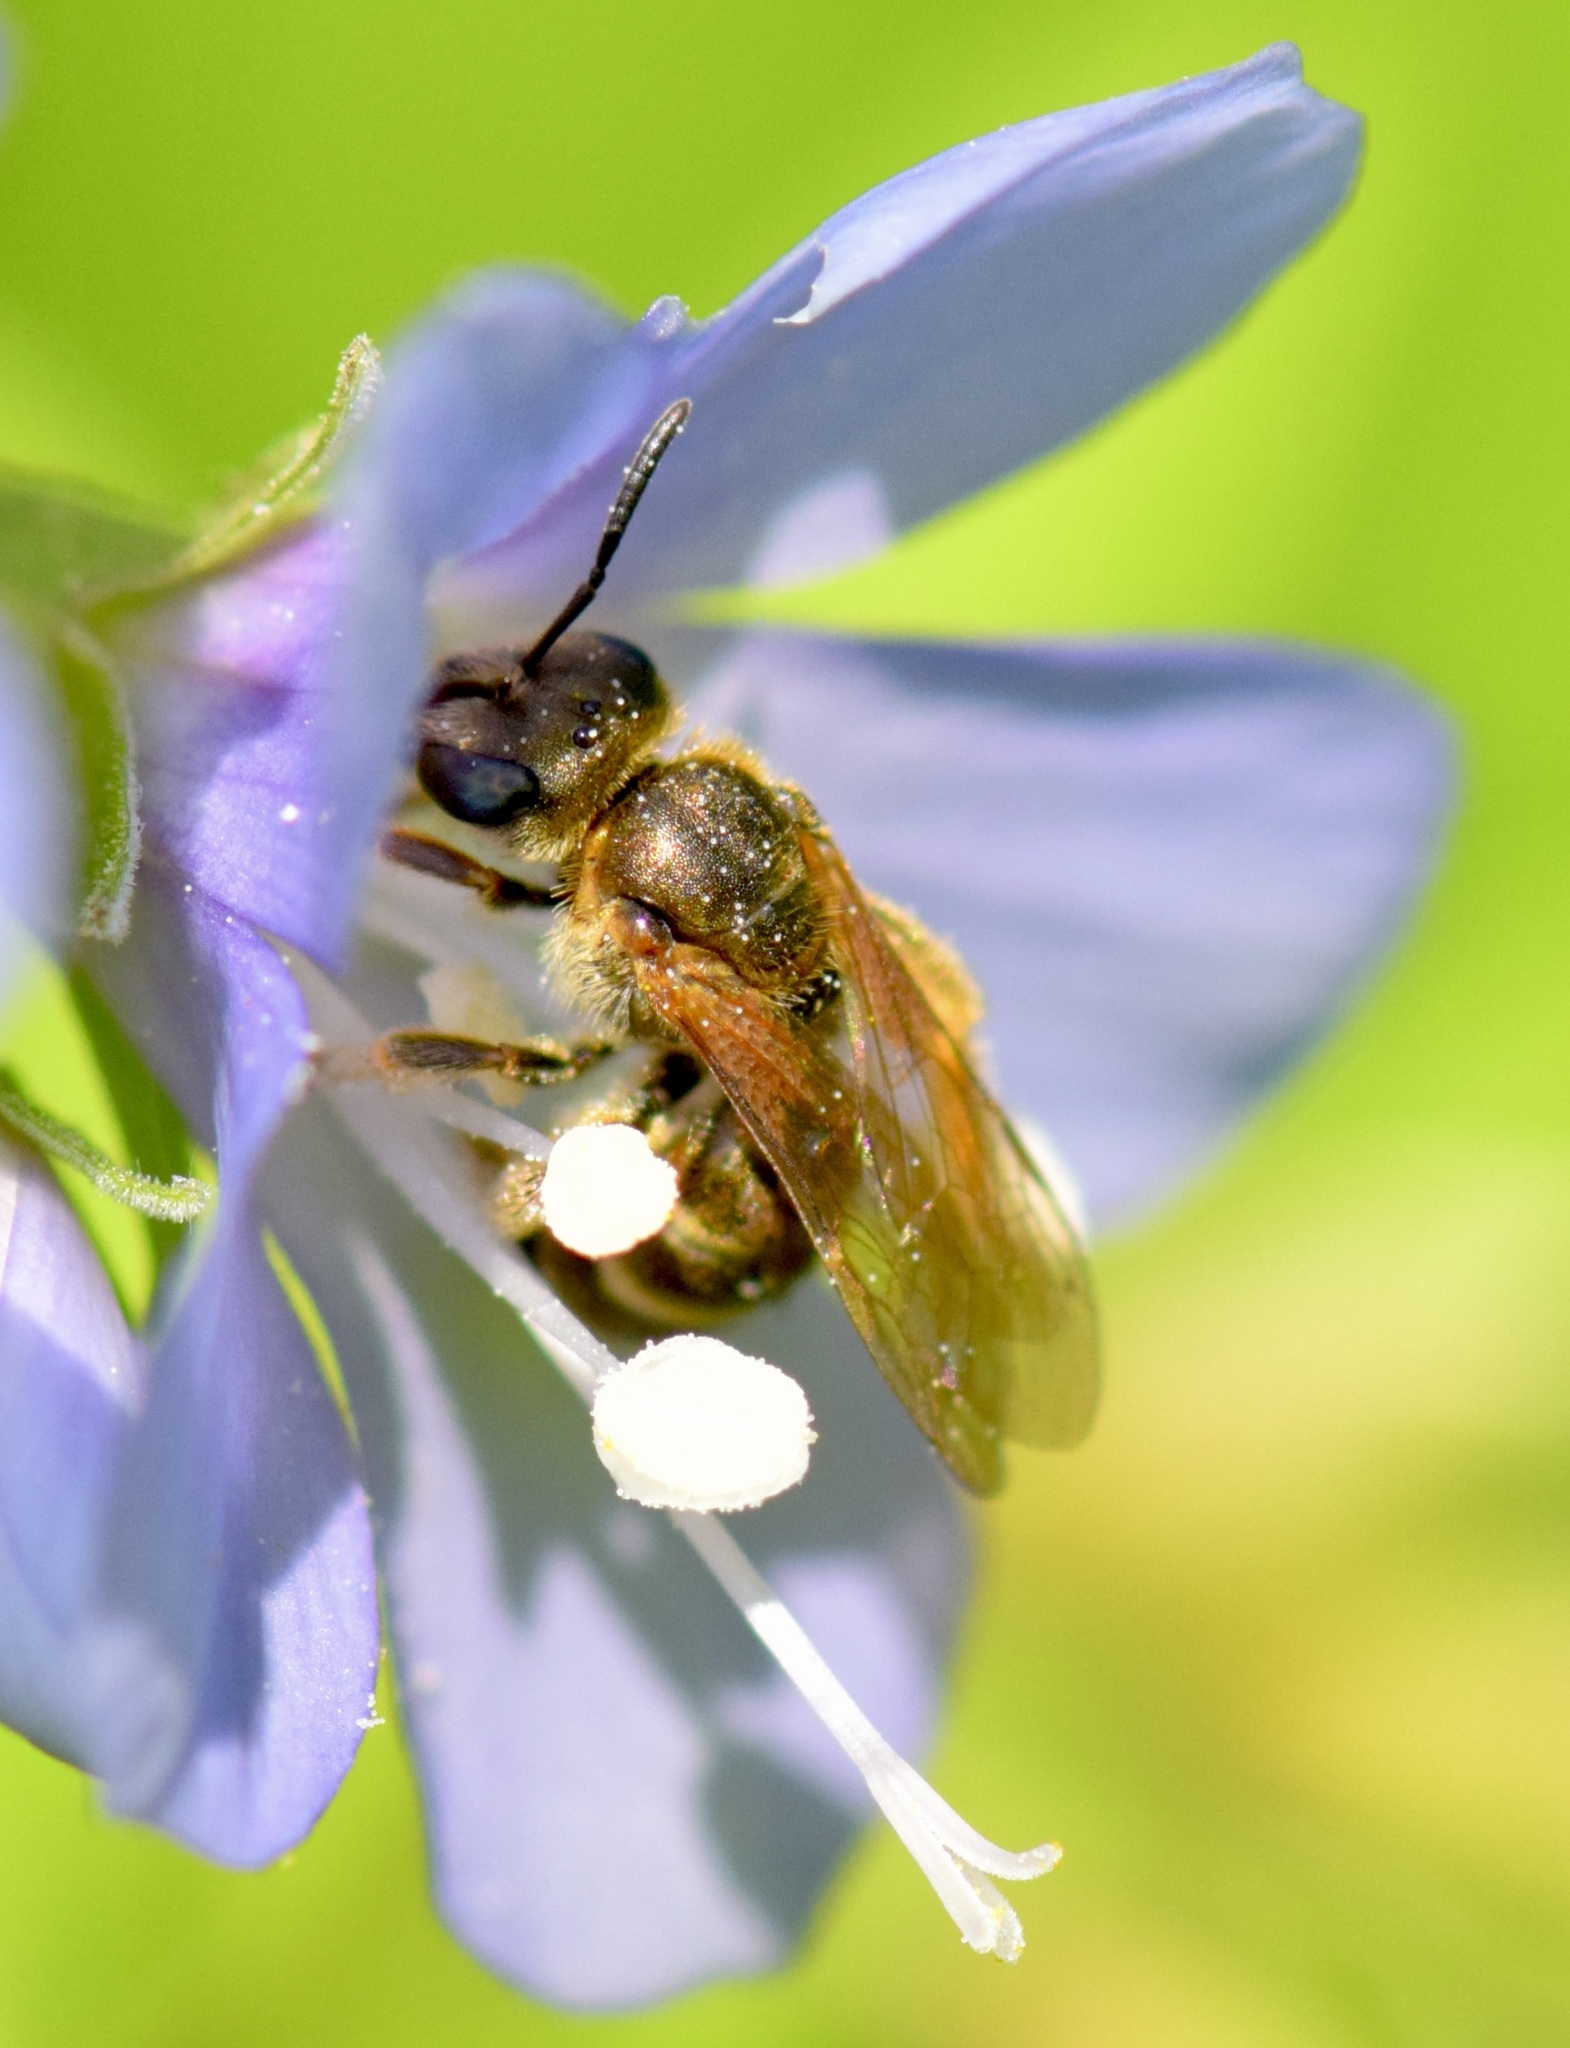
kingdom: Animalia
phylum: Arthropoda
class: Insecta
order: Hymenoptera
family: Halictidae
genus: Halictus
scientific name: Halictus confusus
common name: Southern bronze furrow bee
